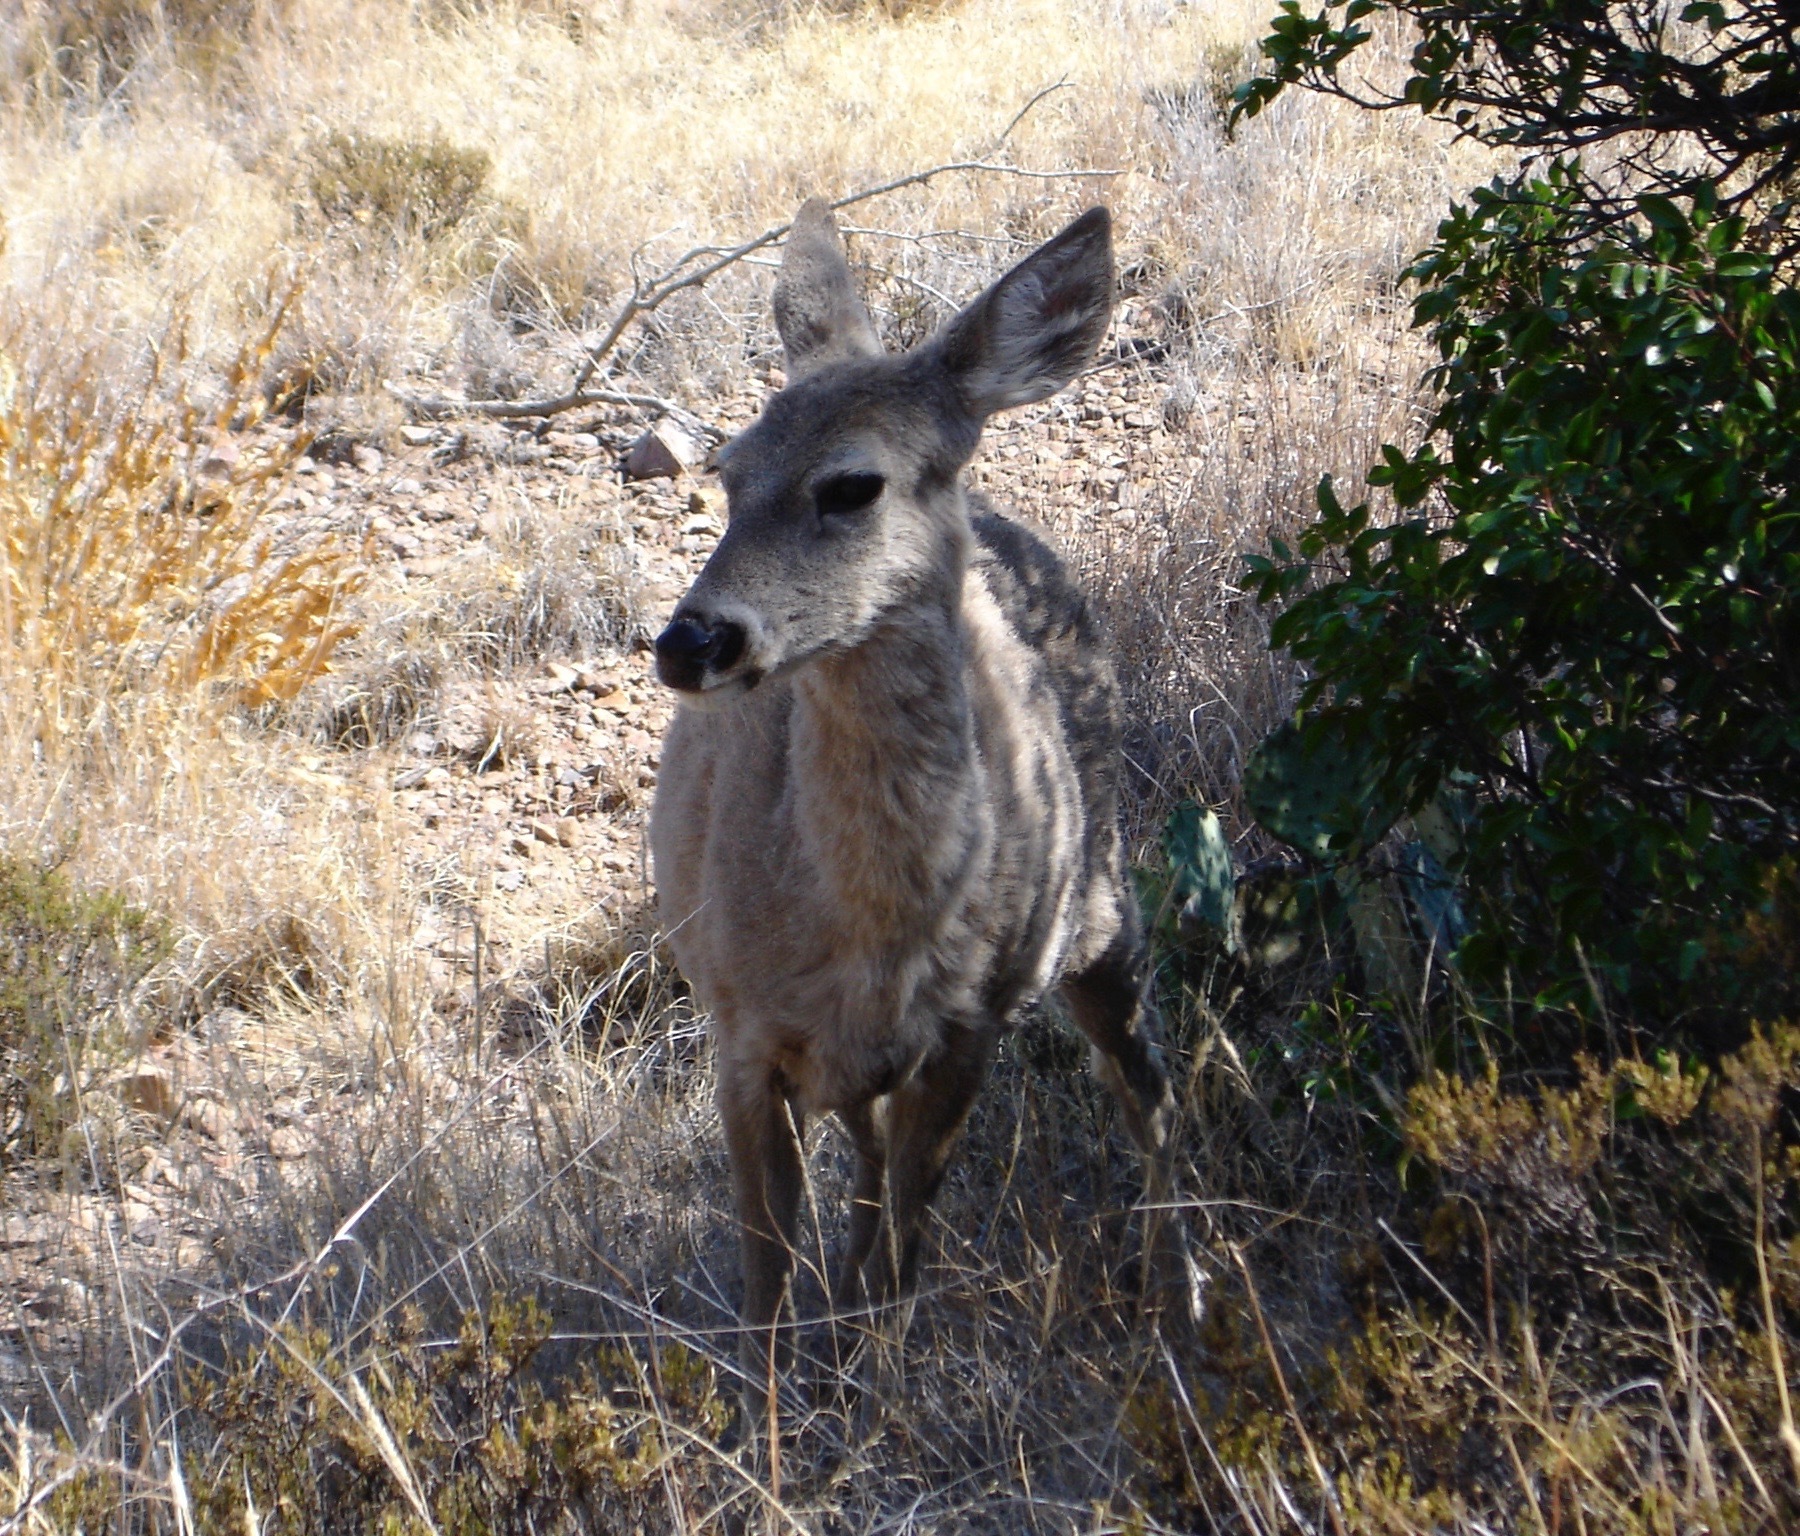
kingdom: Animalia
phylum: Chordata
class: Mammalia
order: Artiodactyla
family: Cervidae
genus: Odocoileus
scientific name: Odocoileus virginianus
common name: White-tailed deer
